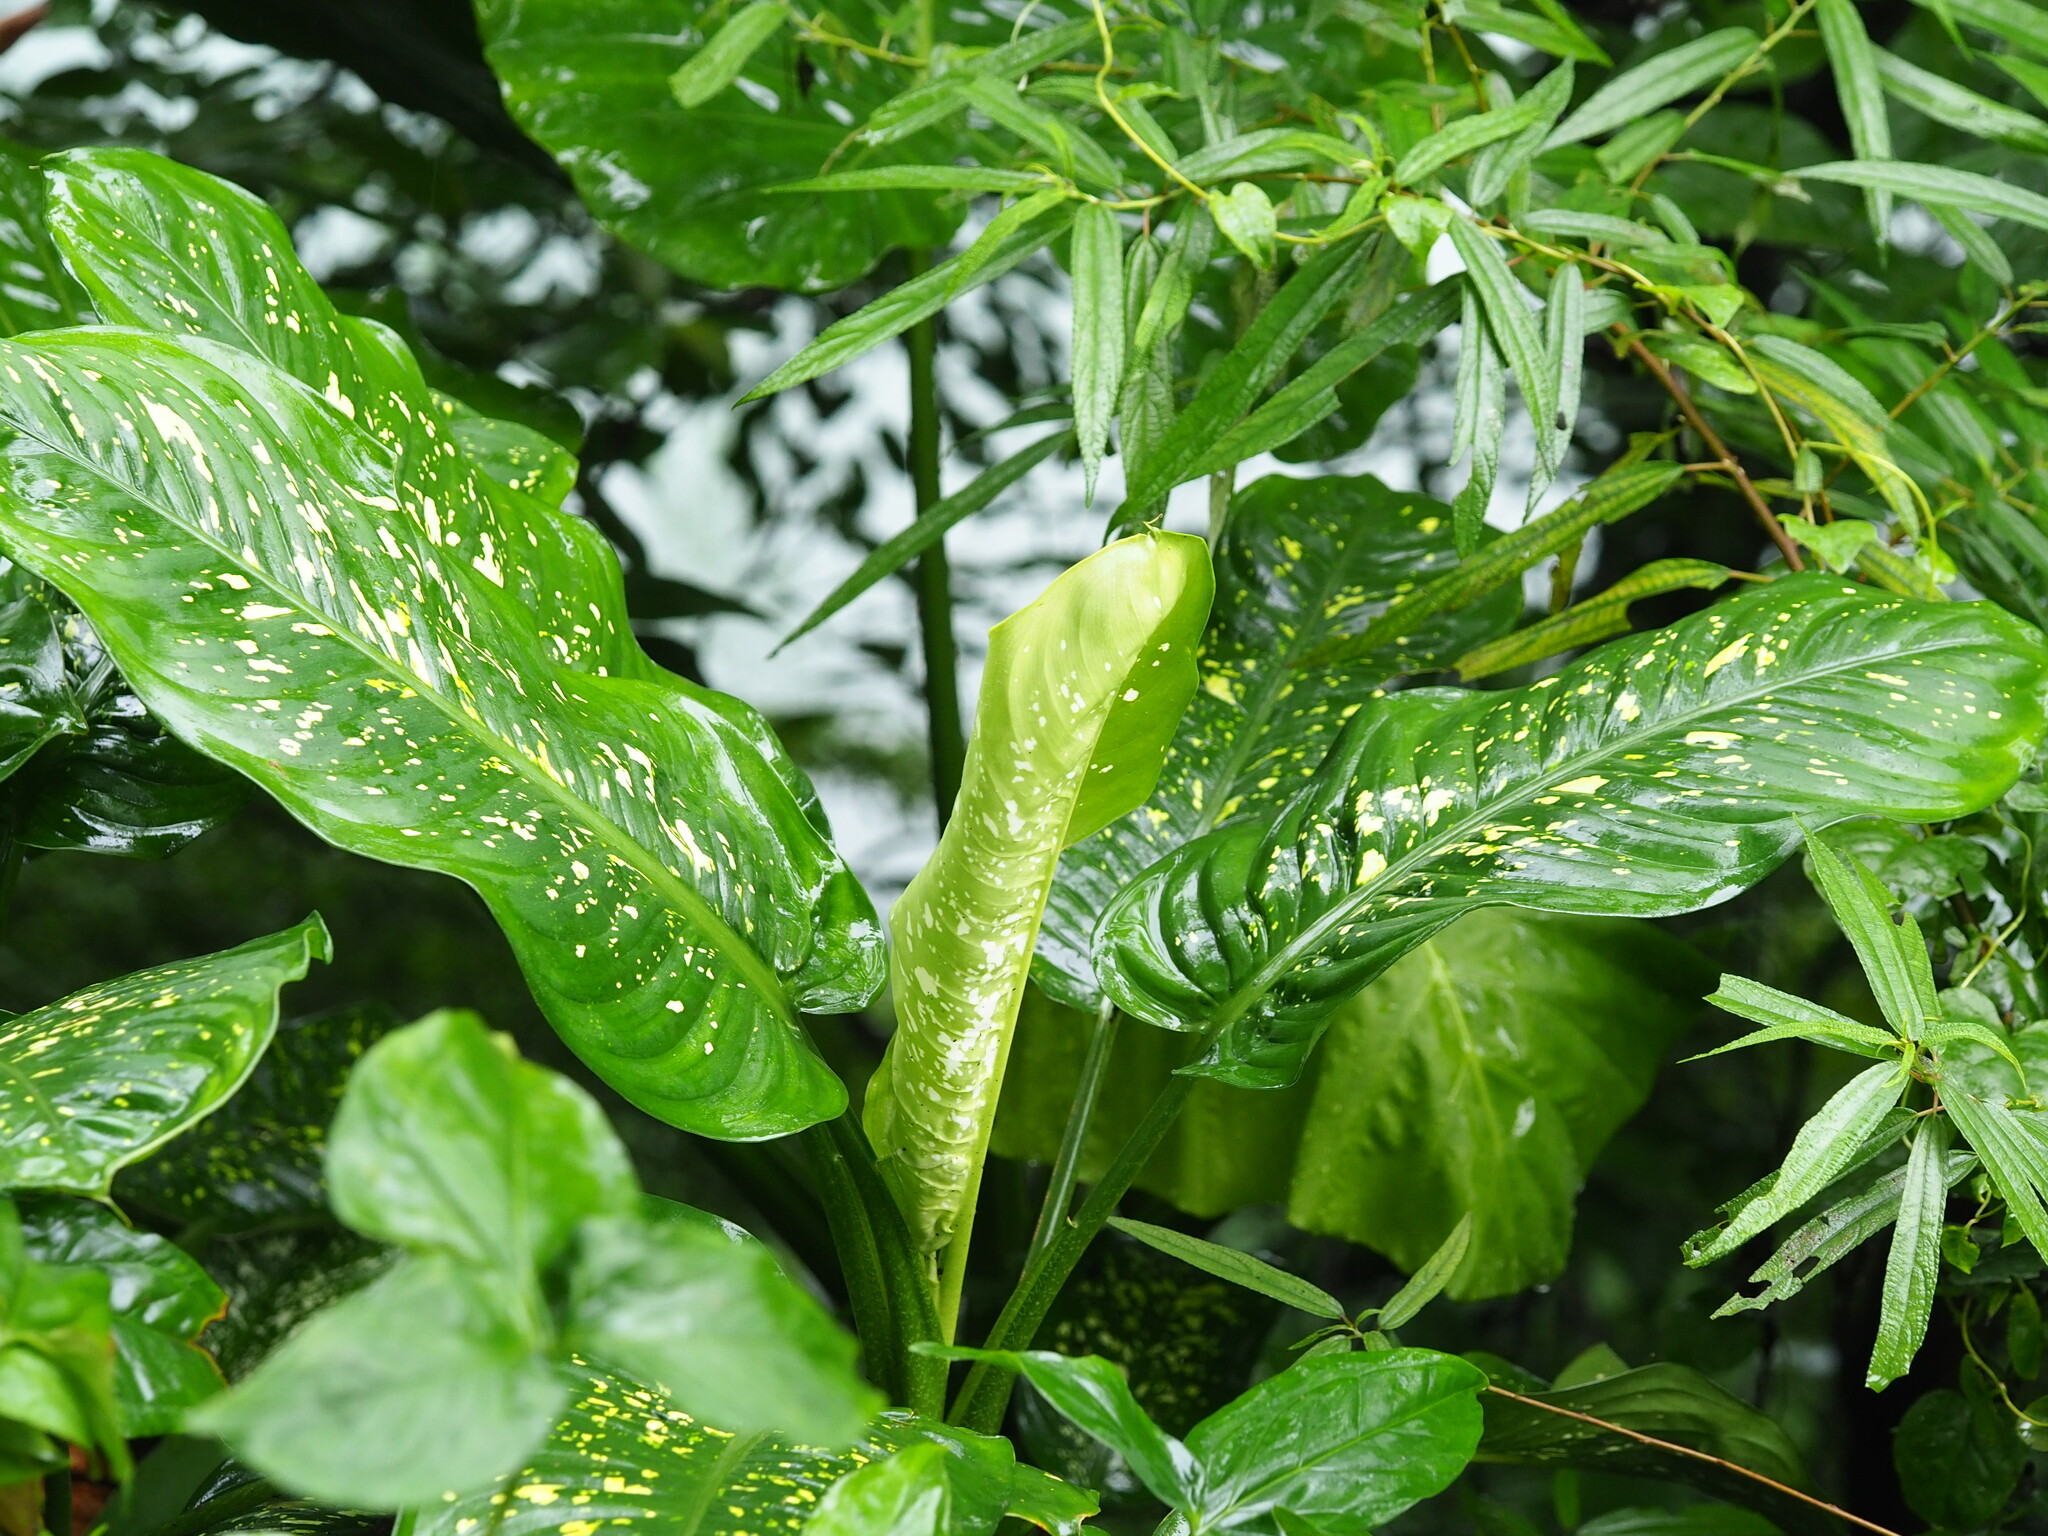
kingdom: Plantae
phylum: Tracheophyta
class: Liliopsida
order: Alismatales
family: Araceae
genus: Dieffenbachia
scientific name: Dieffenbachia seguine
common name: Dumbcane
